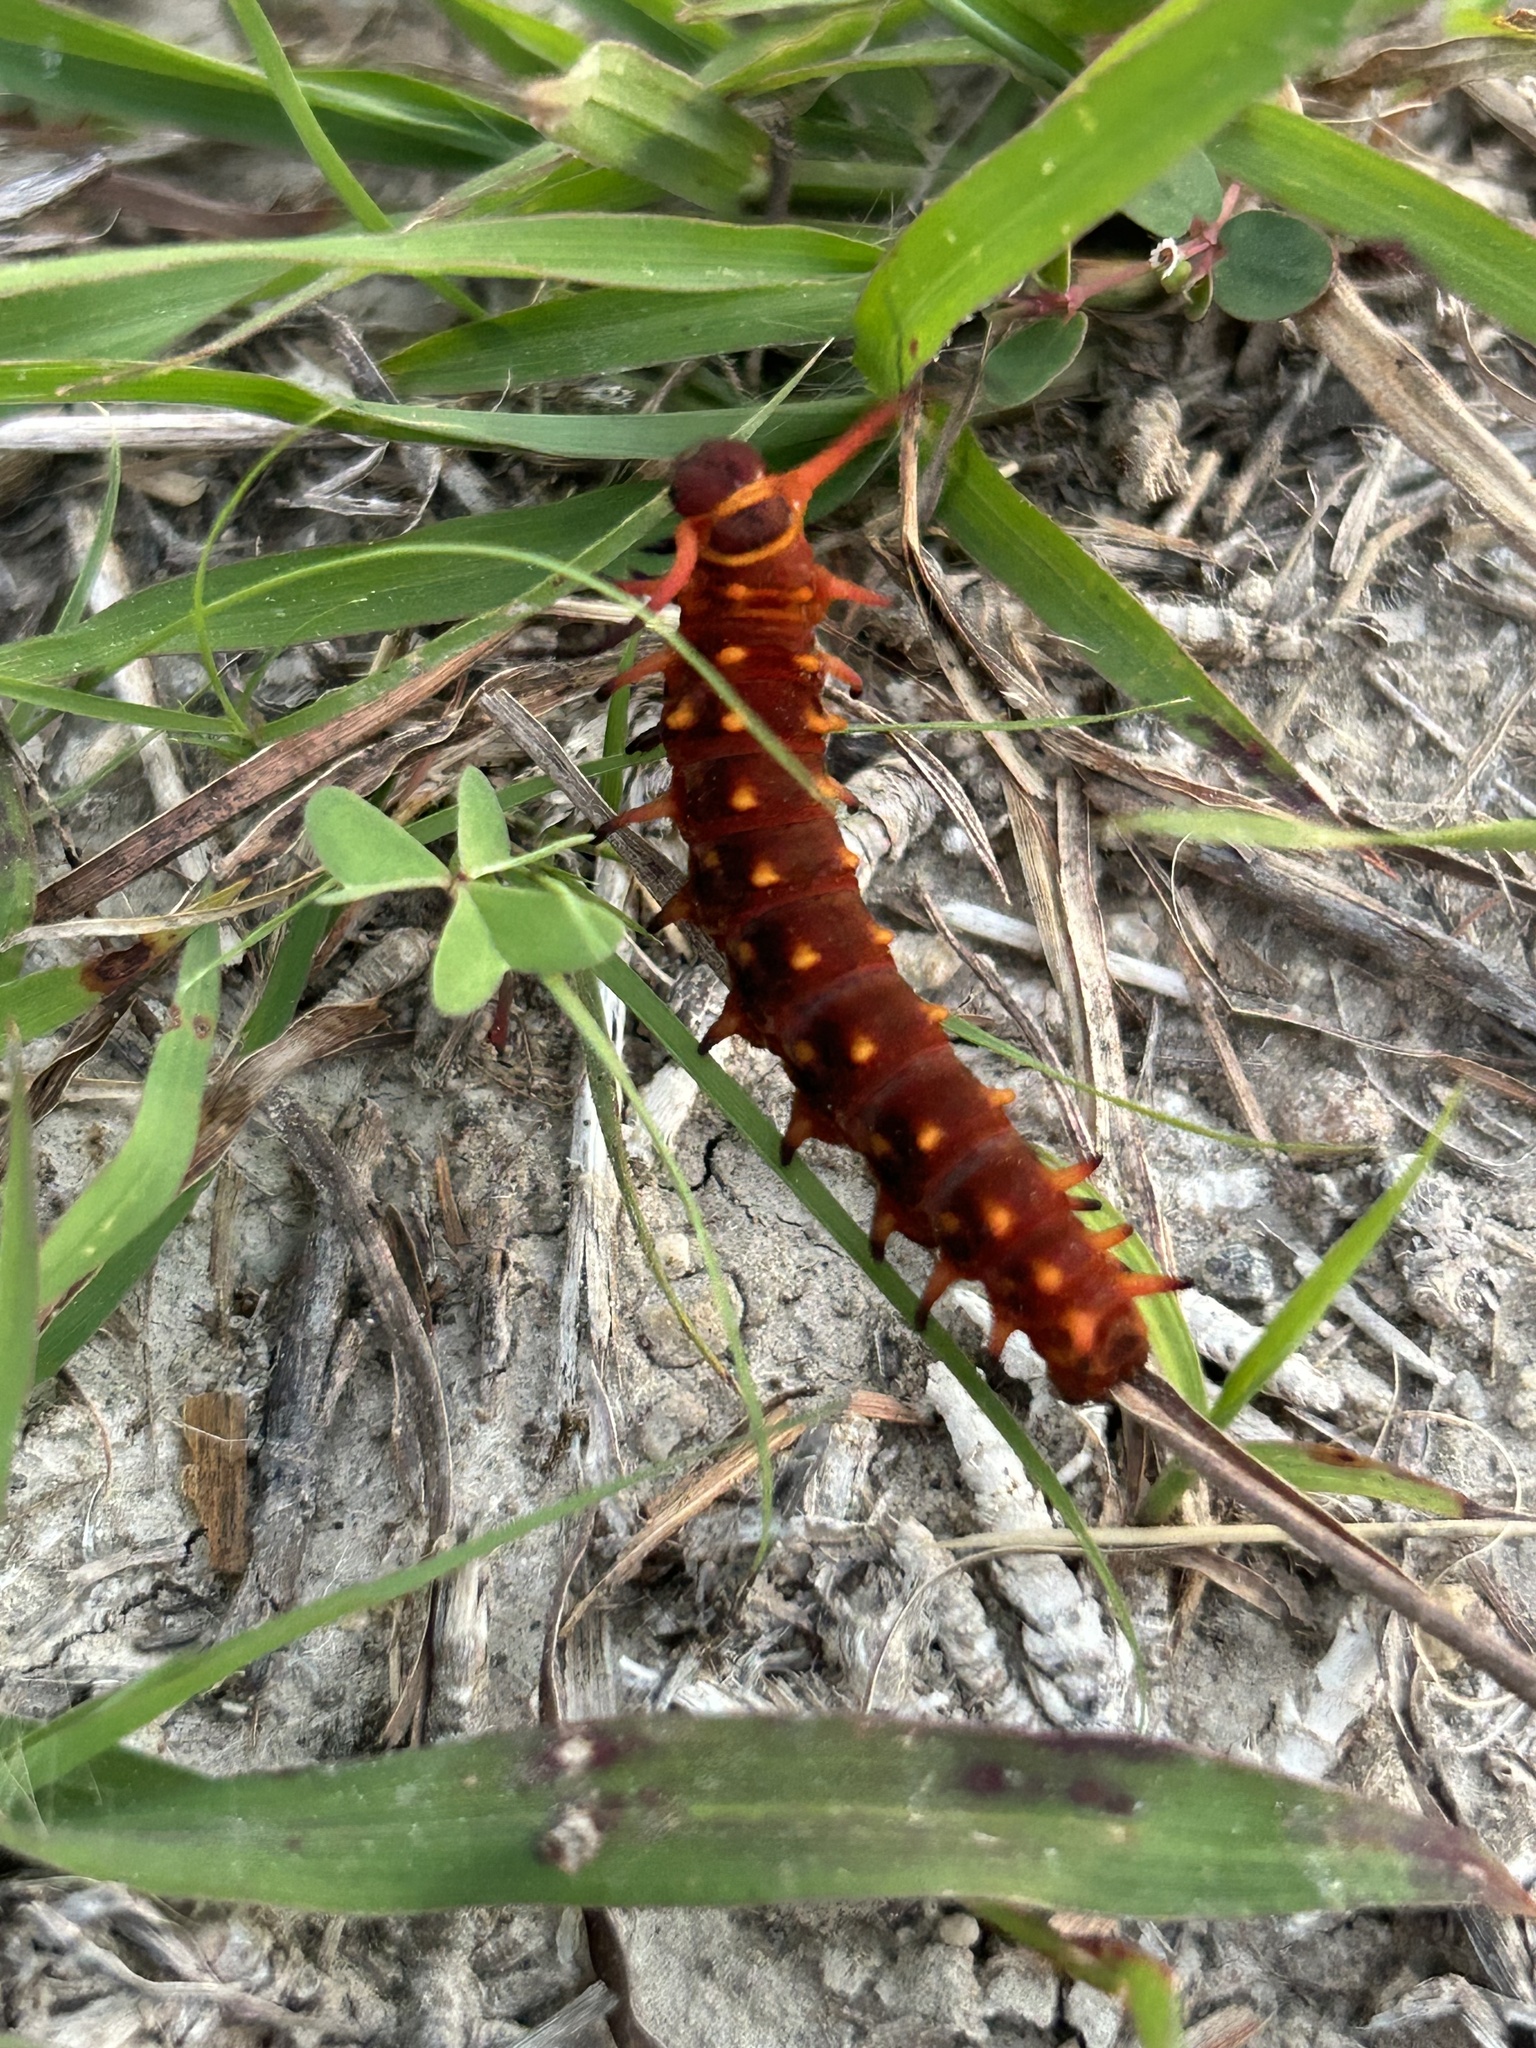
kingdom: Animalia
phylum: Arthropoda
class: Insecta
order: Lepidoptera
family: Papilionidae
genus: Battus
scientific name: Battus philenor
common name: Pipevine swallowtail
